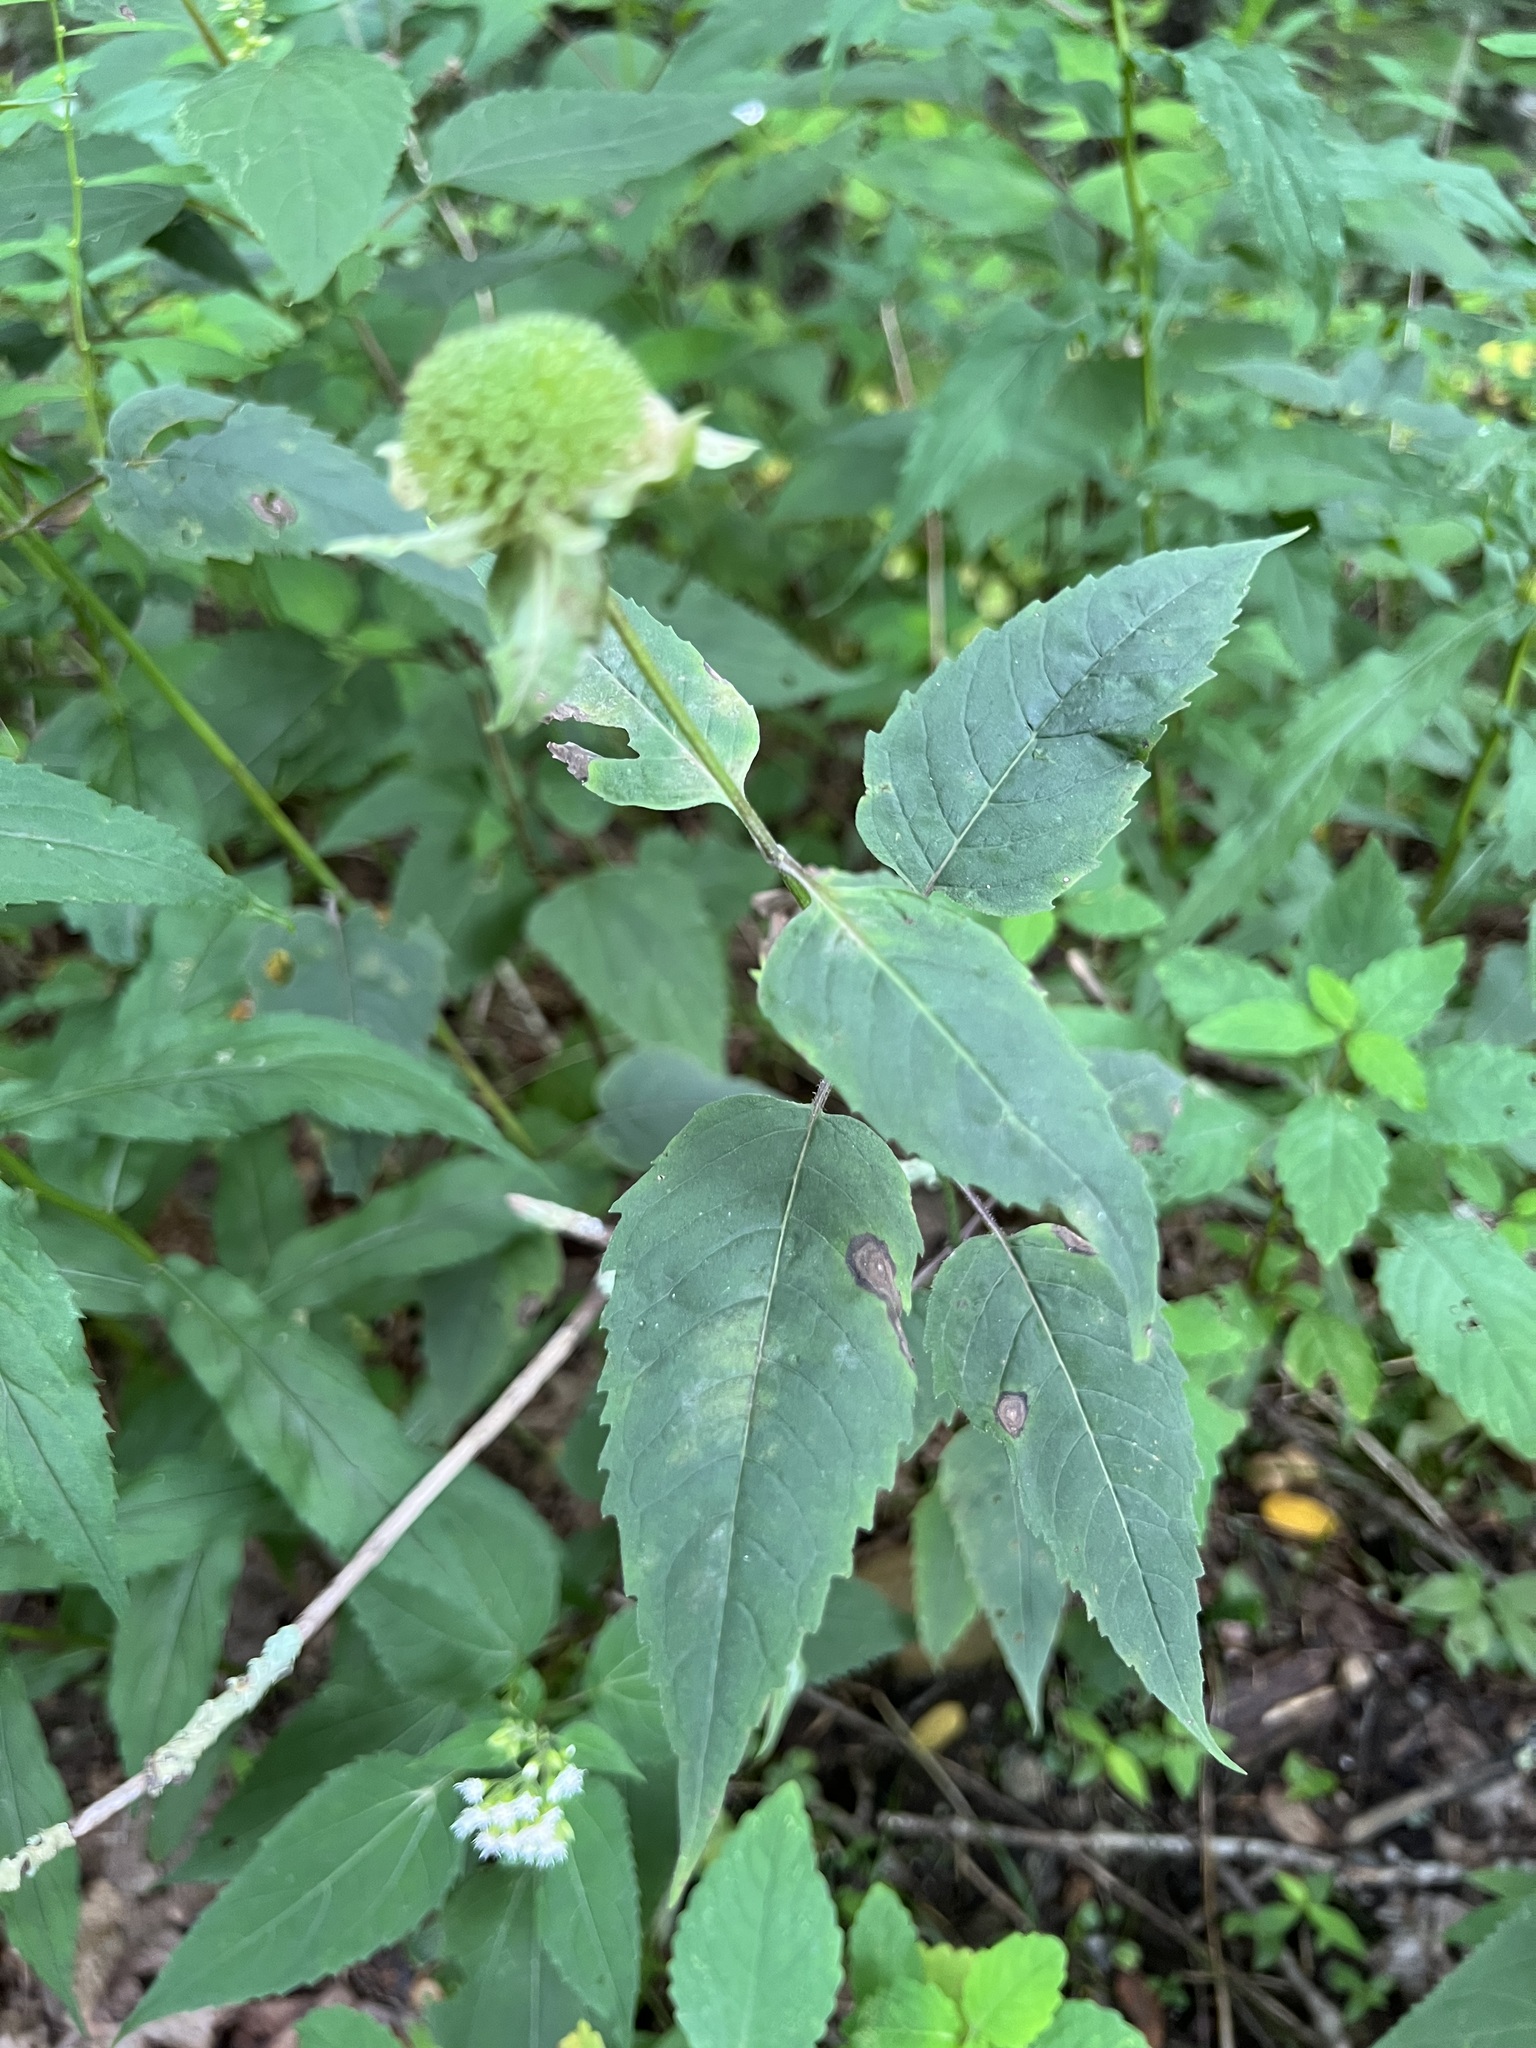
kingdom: Plantae
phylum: Tracheophyta
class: Magnoliopsida
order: Lamiales
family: Lamiaceae
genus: Monarda
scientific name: Monarda clinopodia
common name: Basil beebalm
